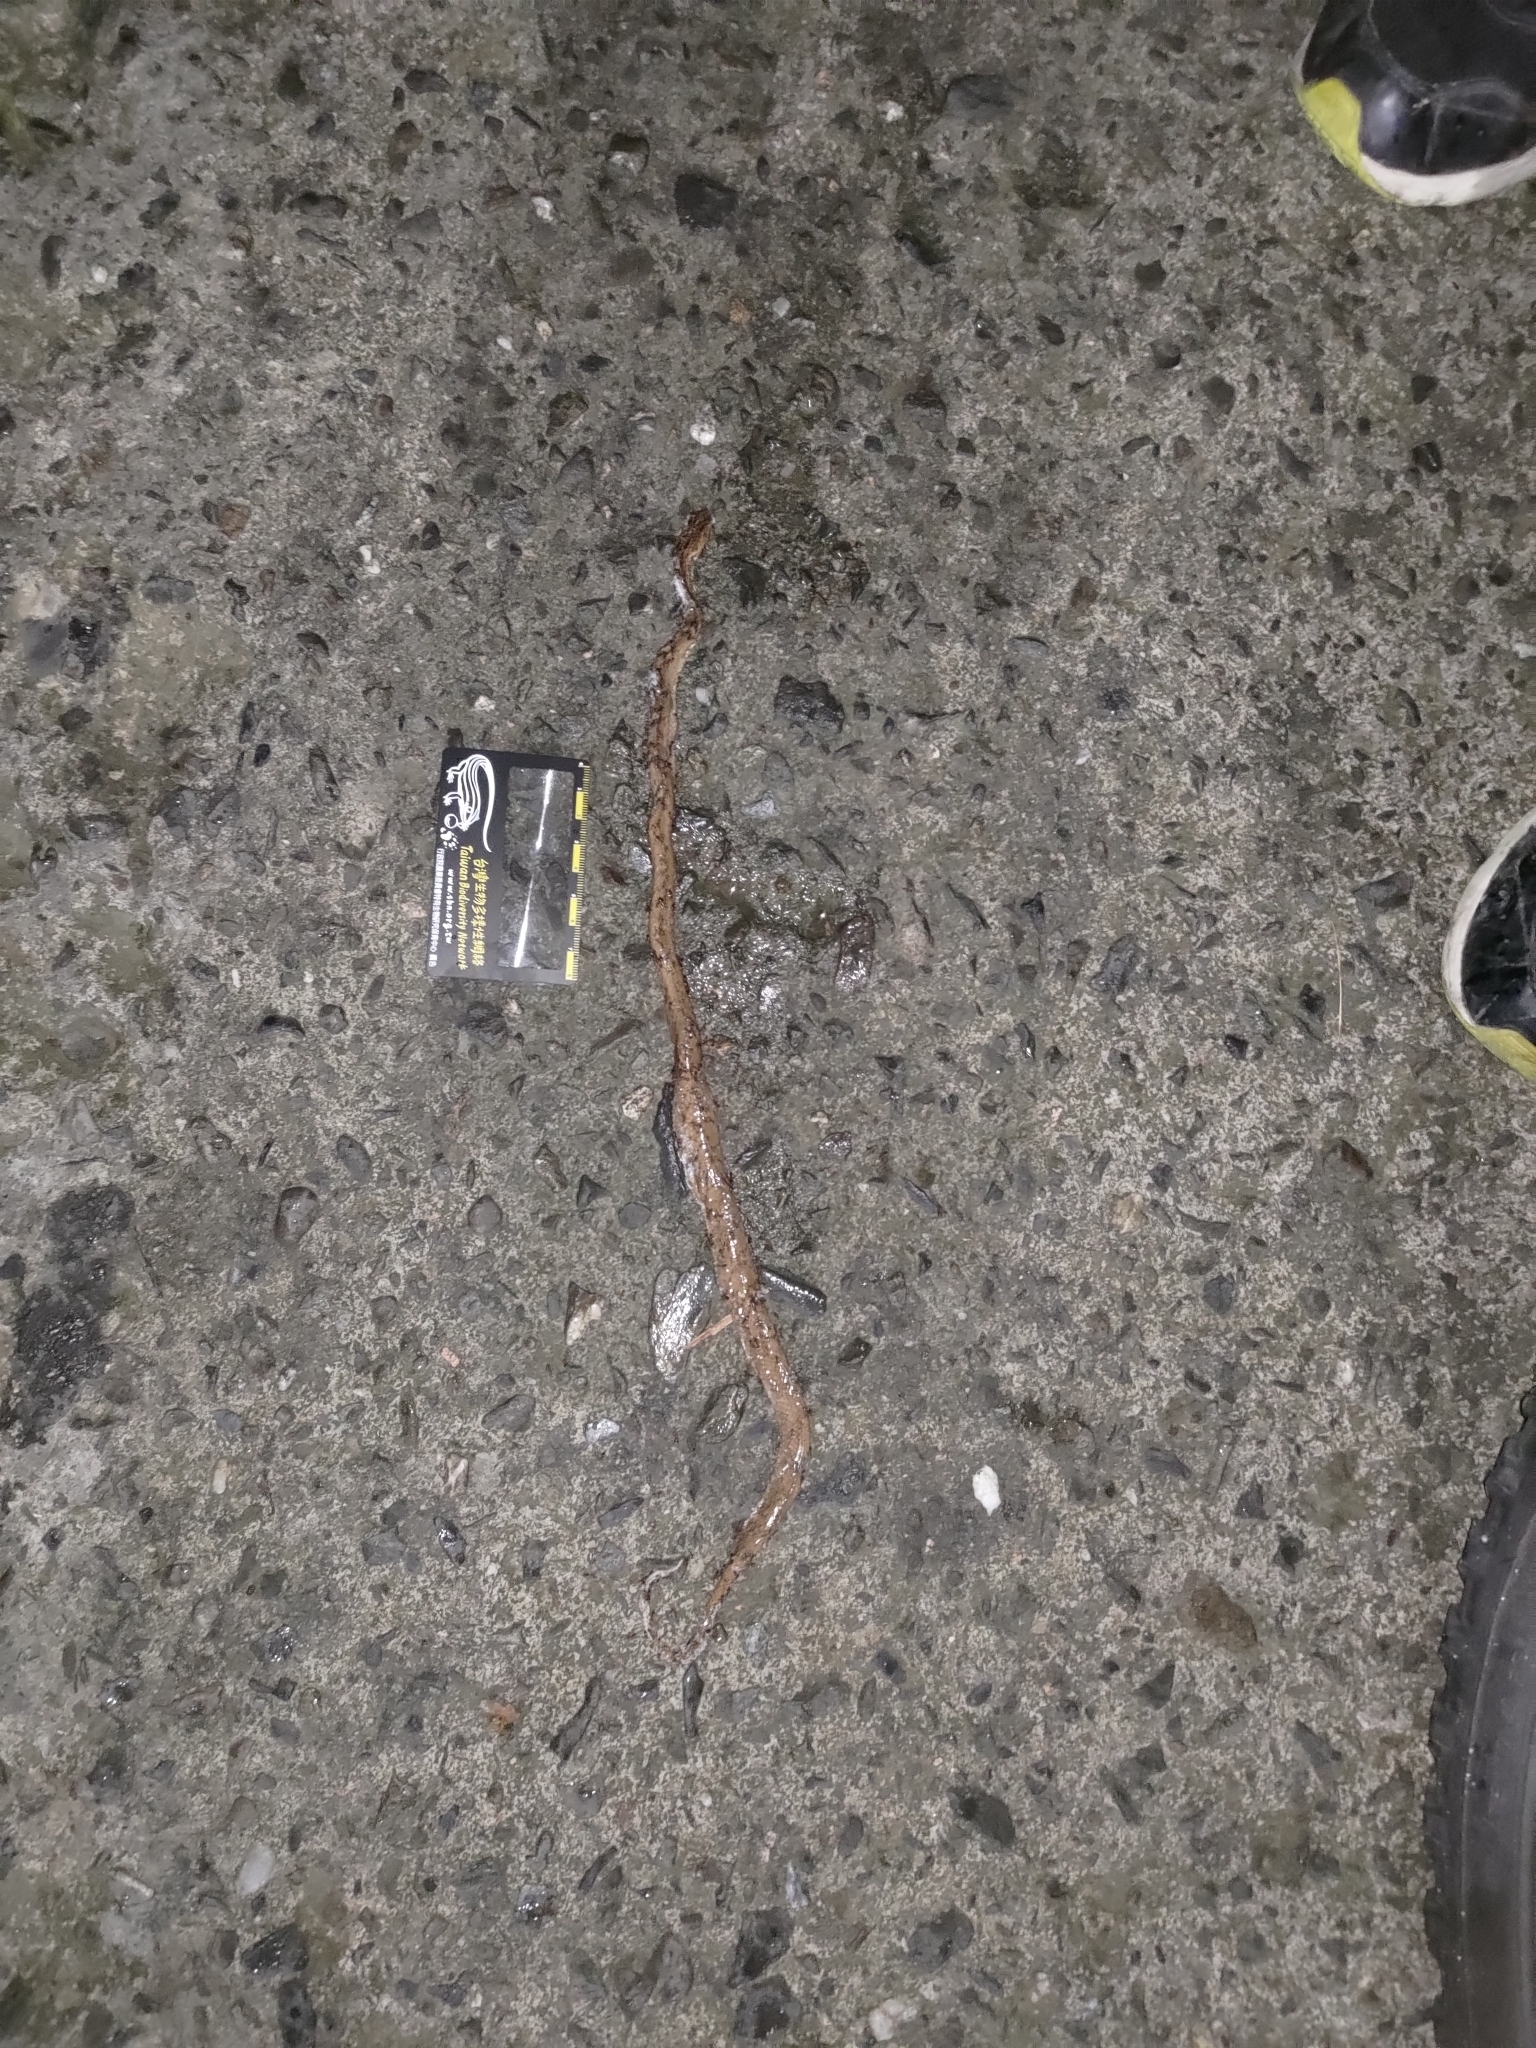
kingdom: Animalia
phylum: Chordata
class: Squamata
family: Pseudaspididae
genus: Psammodynastes
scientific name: Psammodynastes pulverulentus
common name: Common mock viper
